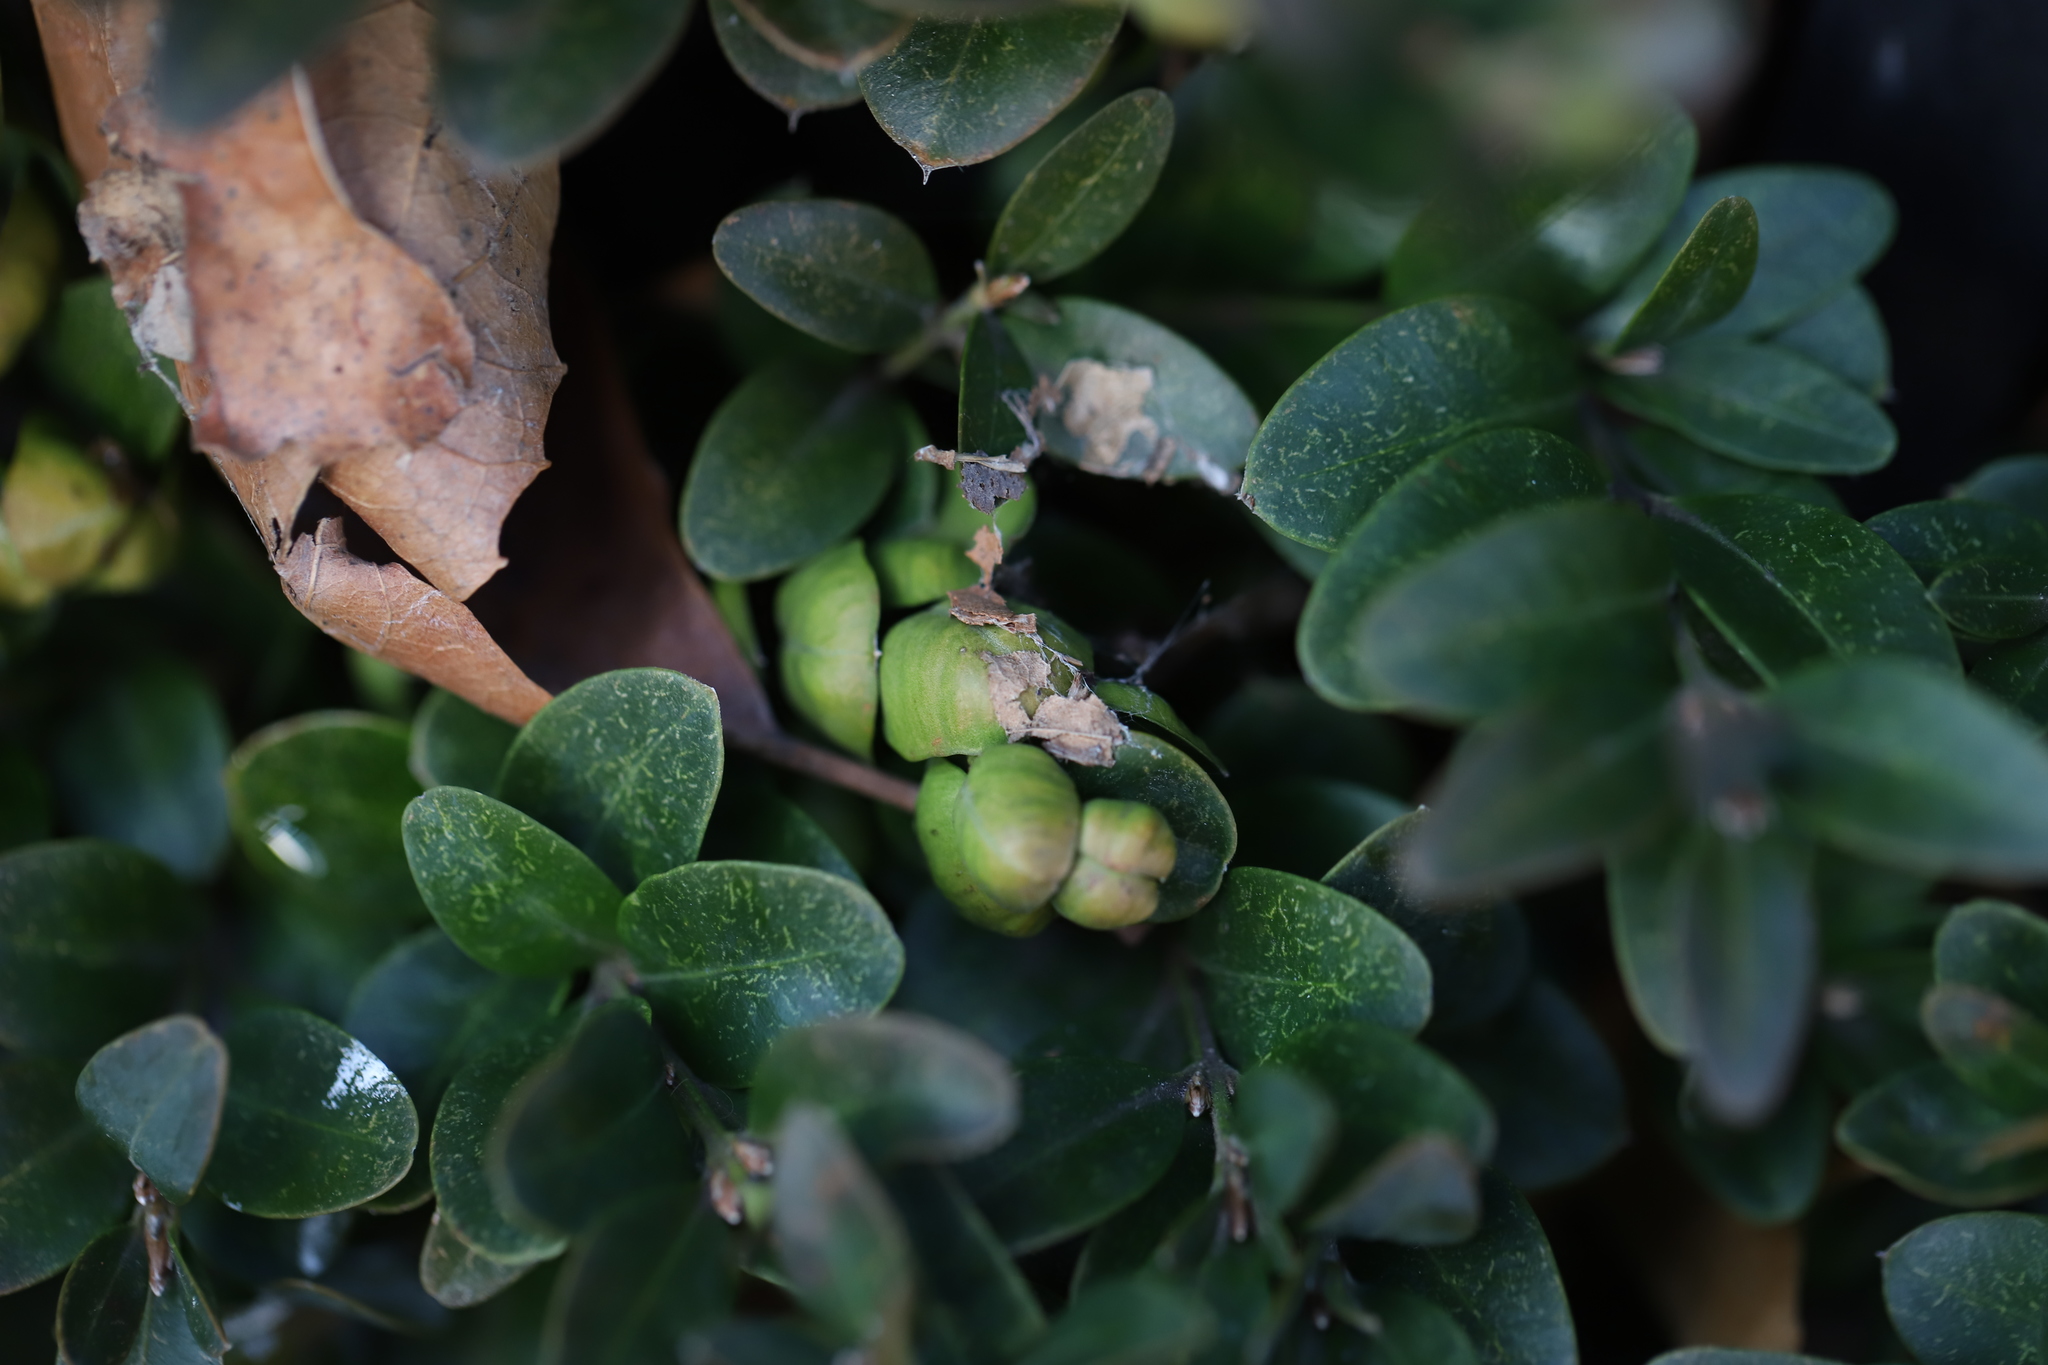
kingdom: Animalia
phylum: Arthropoda
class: Insecta
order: Hemiptera
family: Psyllidae
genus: Psylla
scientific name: Psylla buxi
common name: Boxwood psyllid
